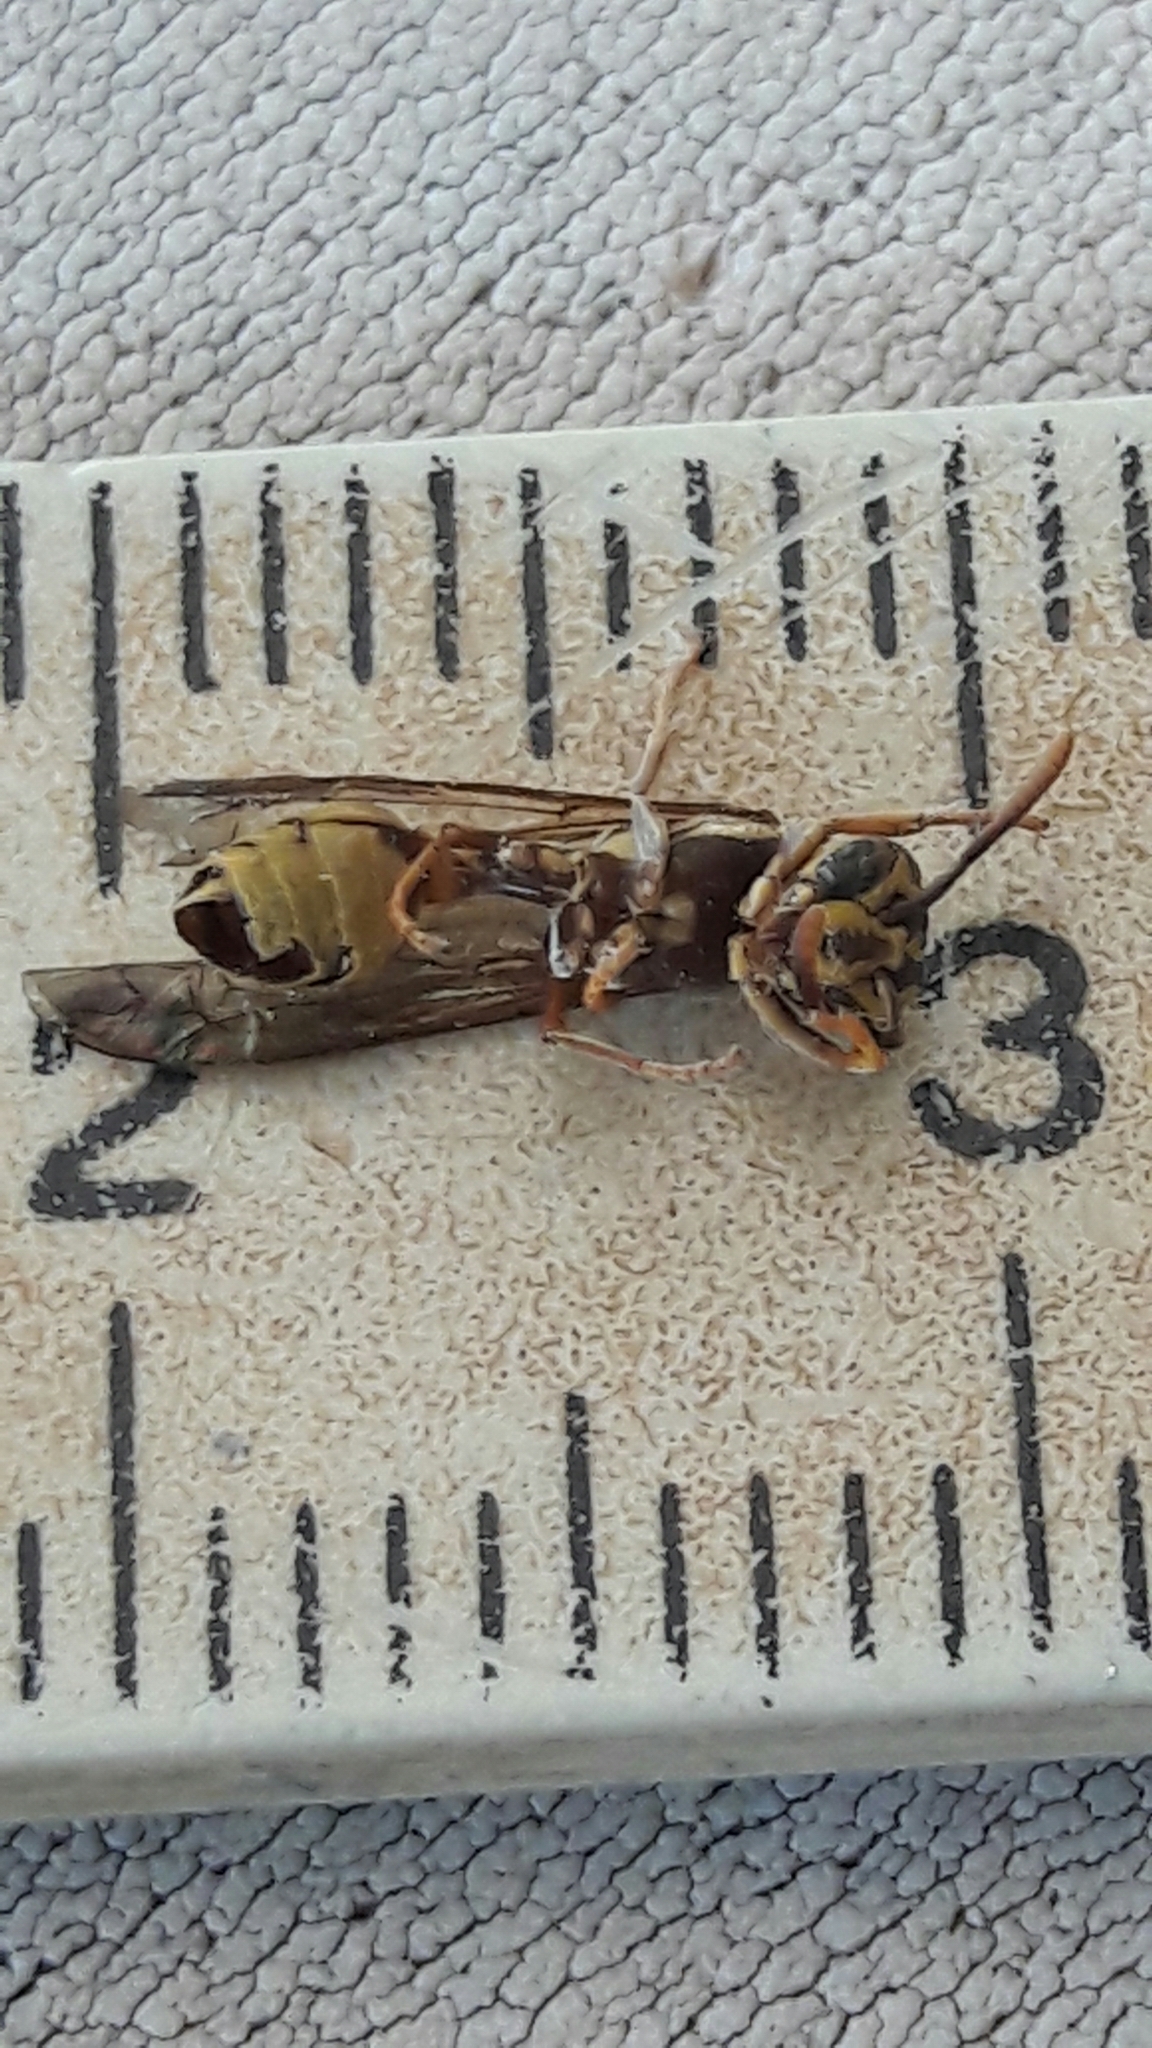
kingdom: Animalia
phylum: Arthropoda
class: Insecta
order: Hymenoptera
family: Eumenidae
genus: Polybia
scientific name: Polybia fastidiosuscula
